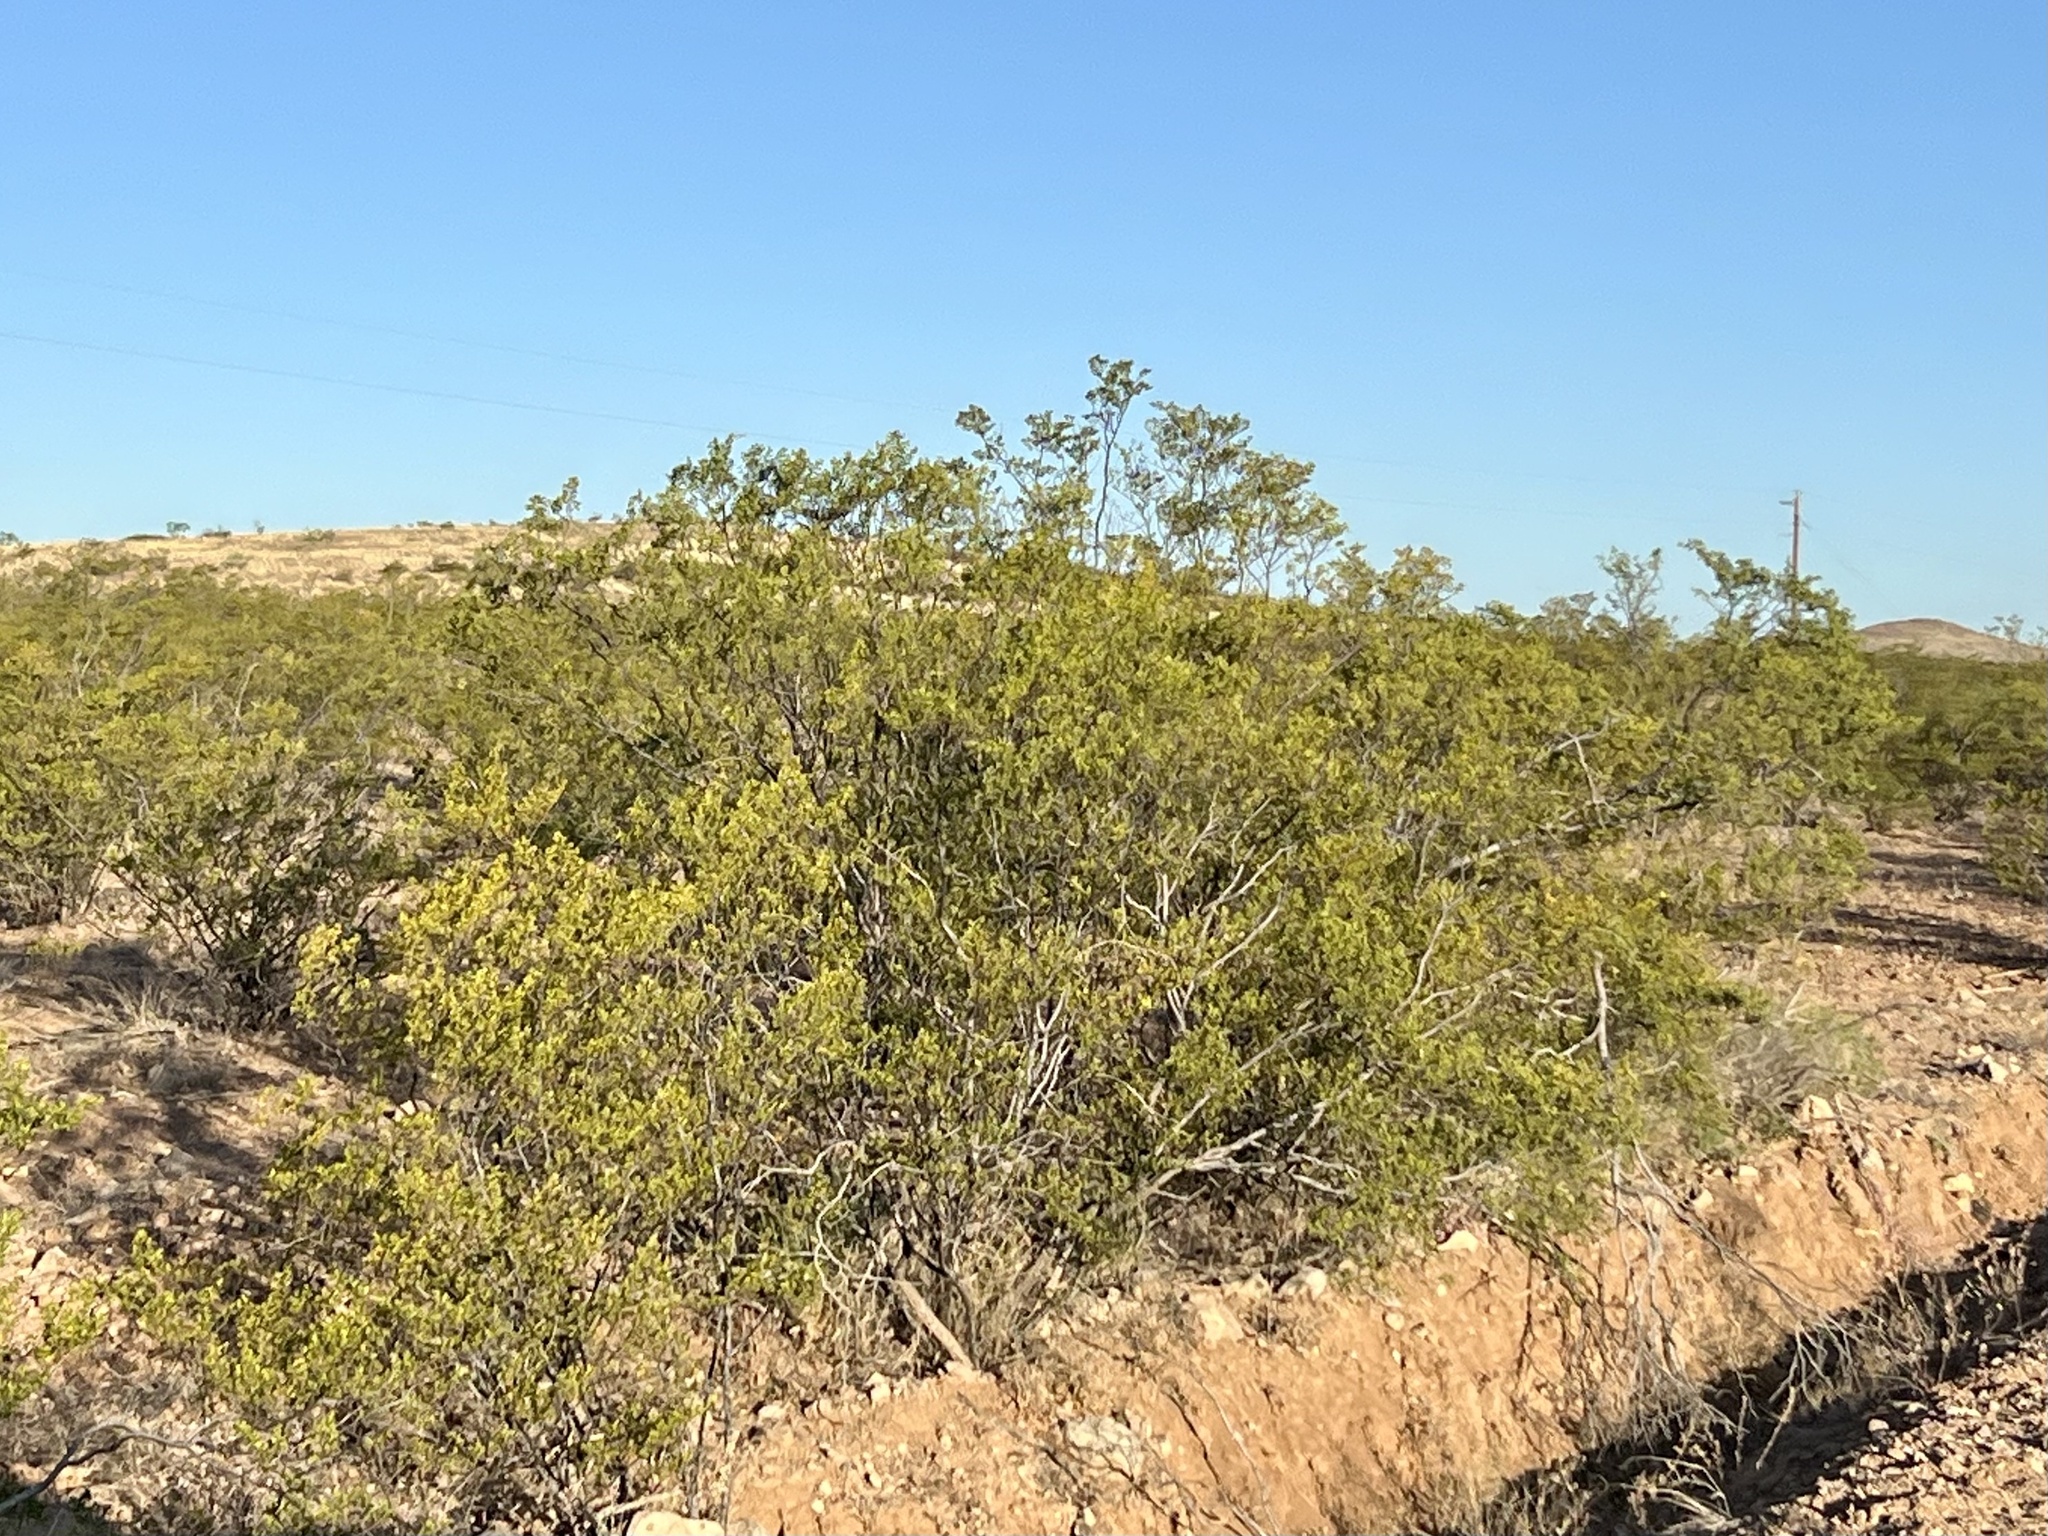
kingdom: Plantae
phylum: Tracheophyta
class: Magnoliopsida
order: Zygophyllales
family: Zygophyllaceae
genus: Larrea
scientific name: Larrea tridentata
